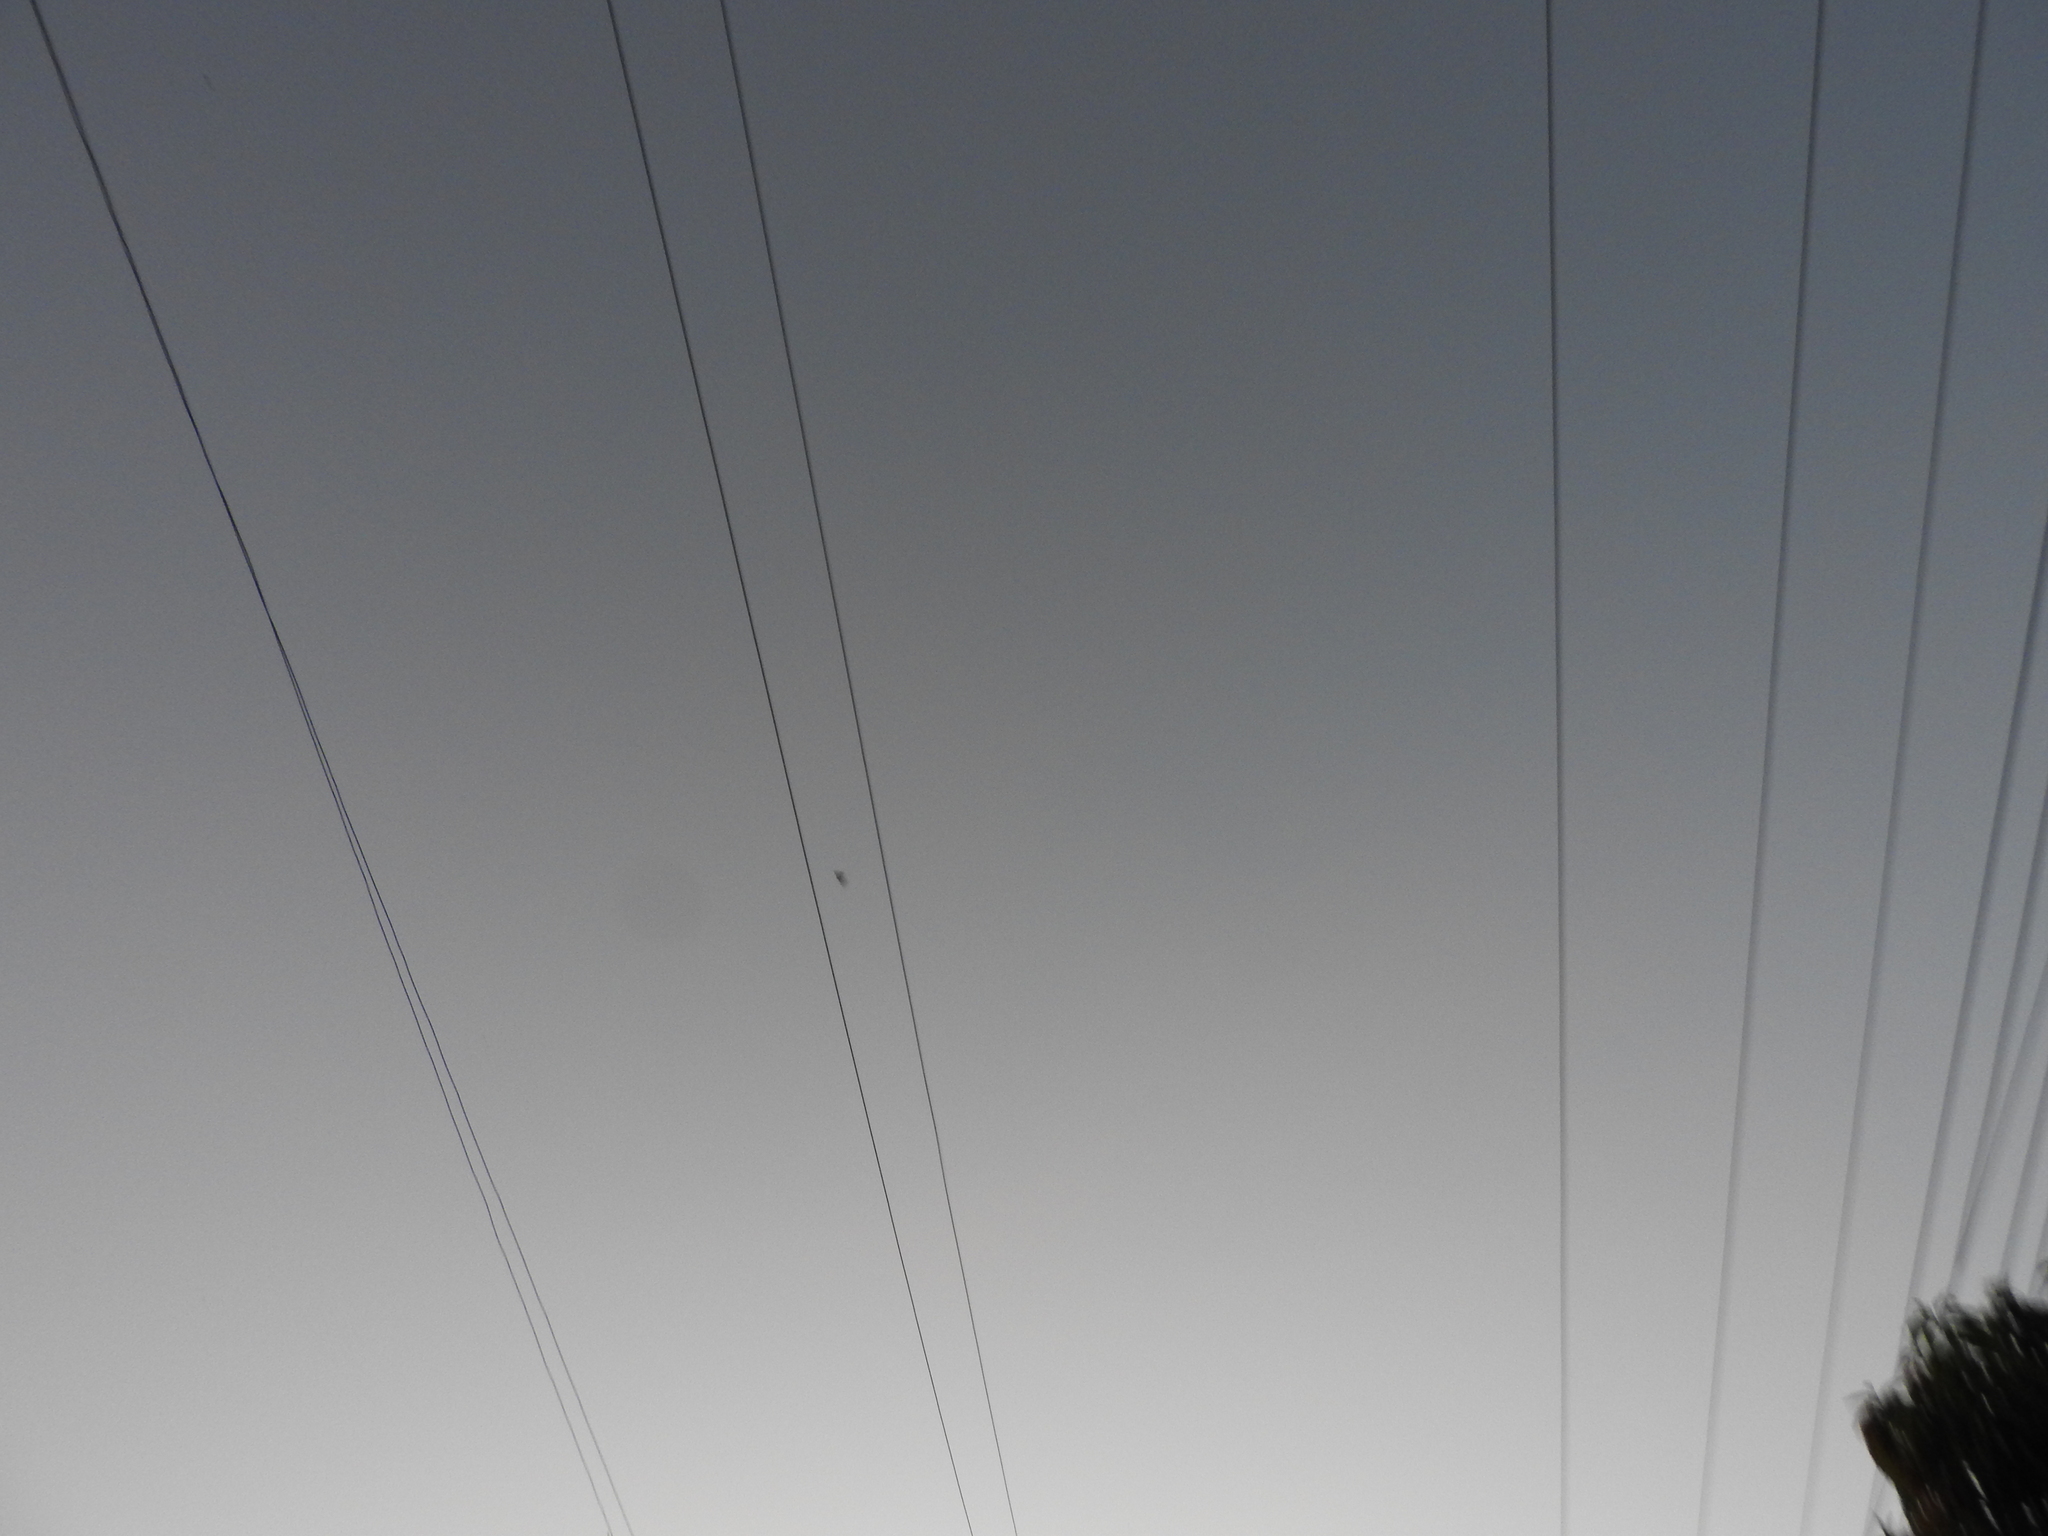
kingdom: Animalia
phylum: Arthropoda
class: Insecta
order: Lepidoptera
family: Nymphalidae
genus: Danaus
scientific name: Danaus plexippus
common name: Monarch
